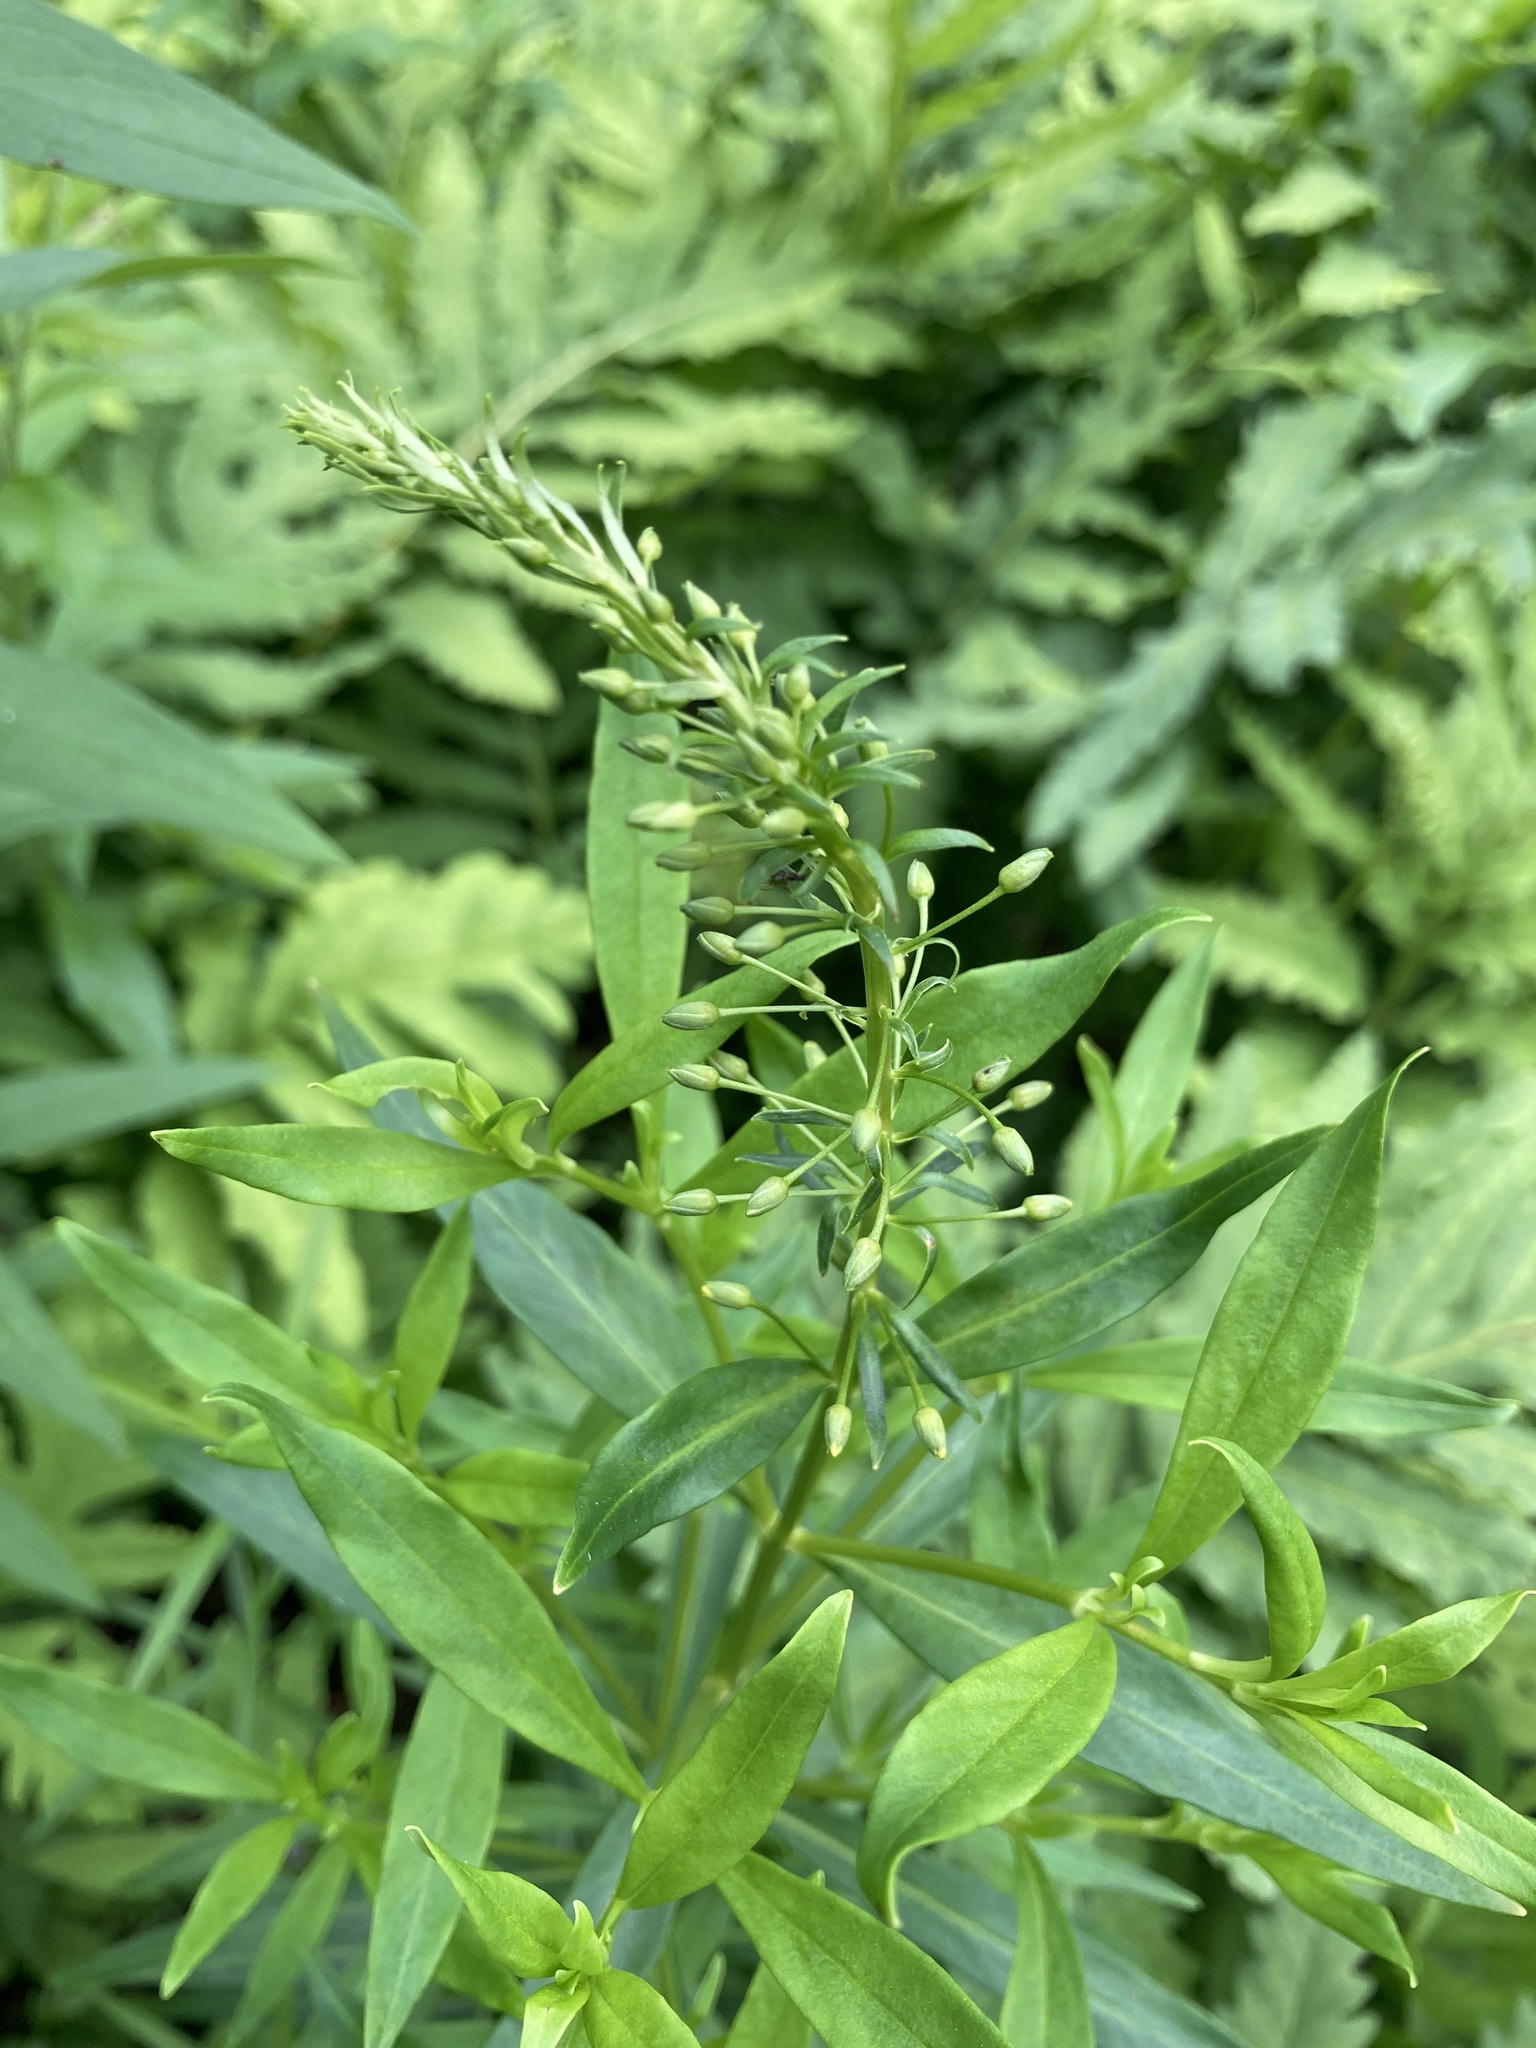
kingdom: Plantae
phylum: Tracheophyta
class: Magnoliopsida
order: Ericales
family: Primulaceae
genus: Lysimachia
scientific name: Lysimachia terrestris
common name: Lake loosestrife
